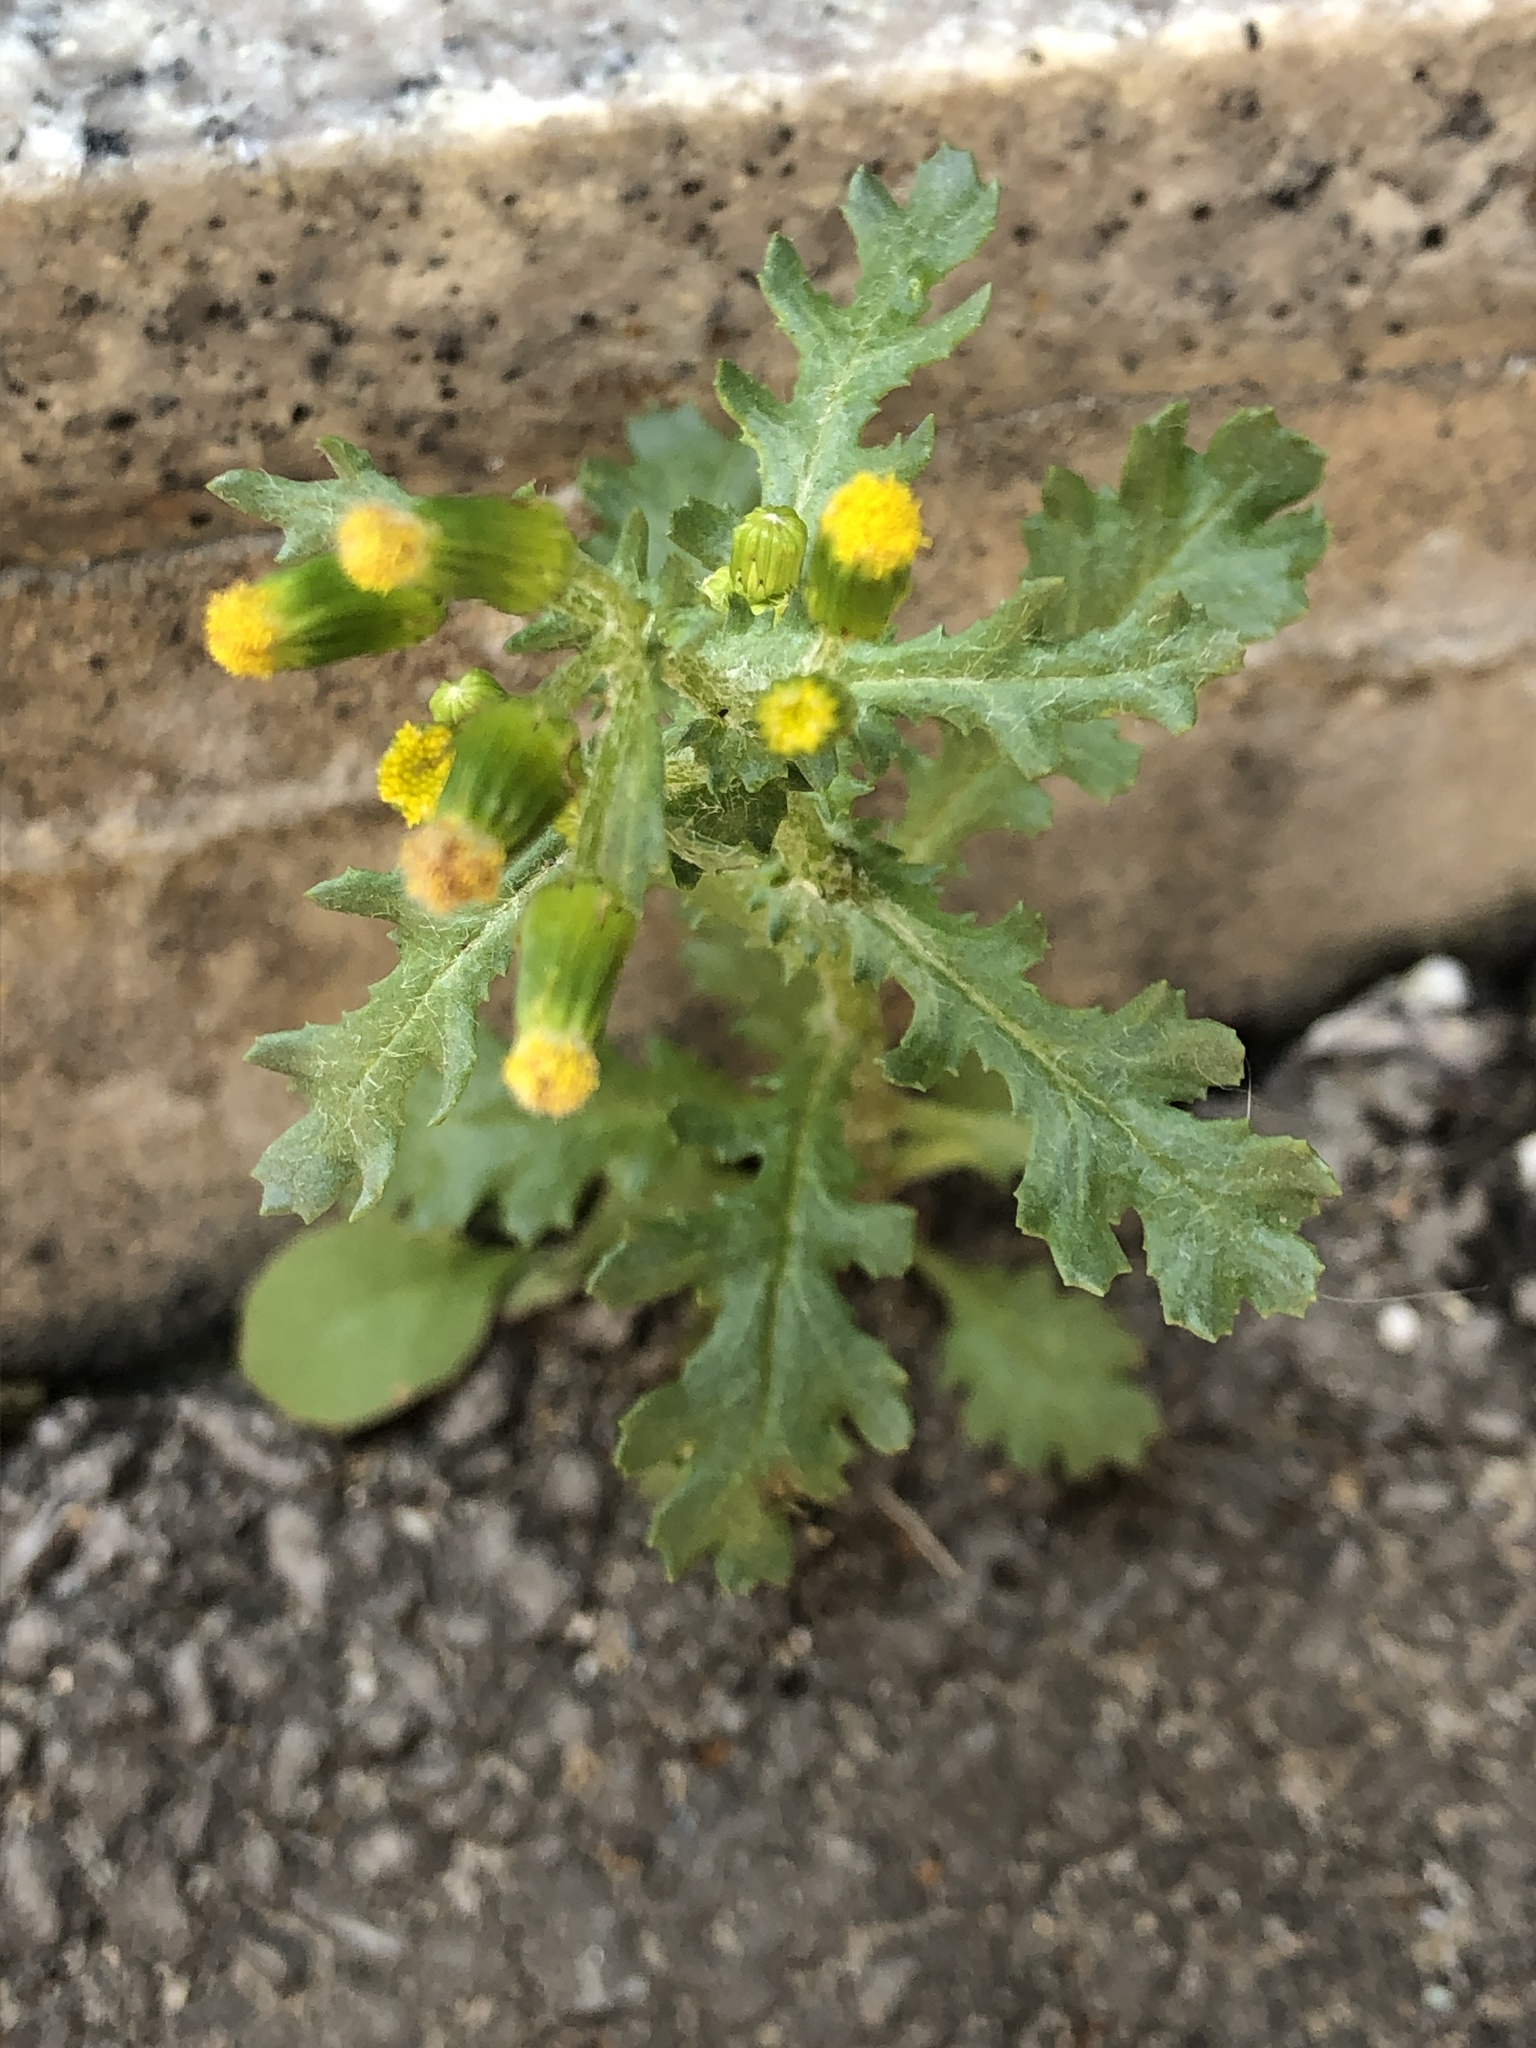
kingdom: Plantae
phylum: Tracheophyta
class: Magnoliopsida
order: Asterales
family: Asteraceae
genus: Senecio
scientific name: Senecio vulgaris
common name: Old-man-in-the-spring
